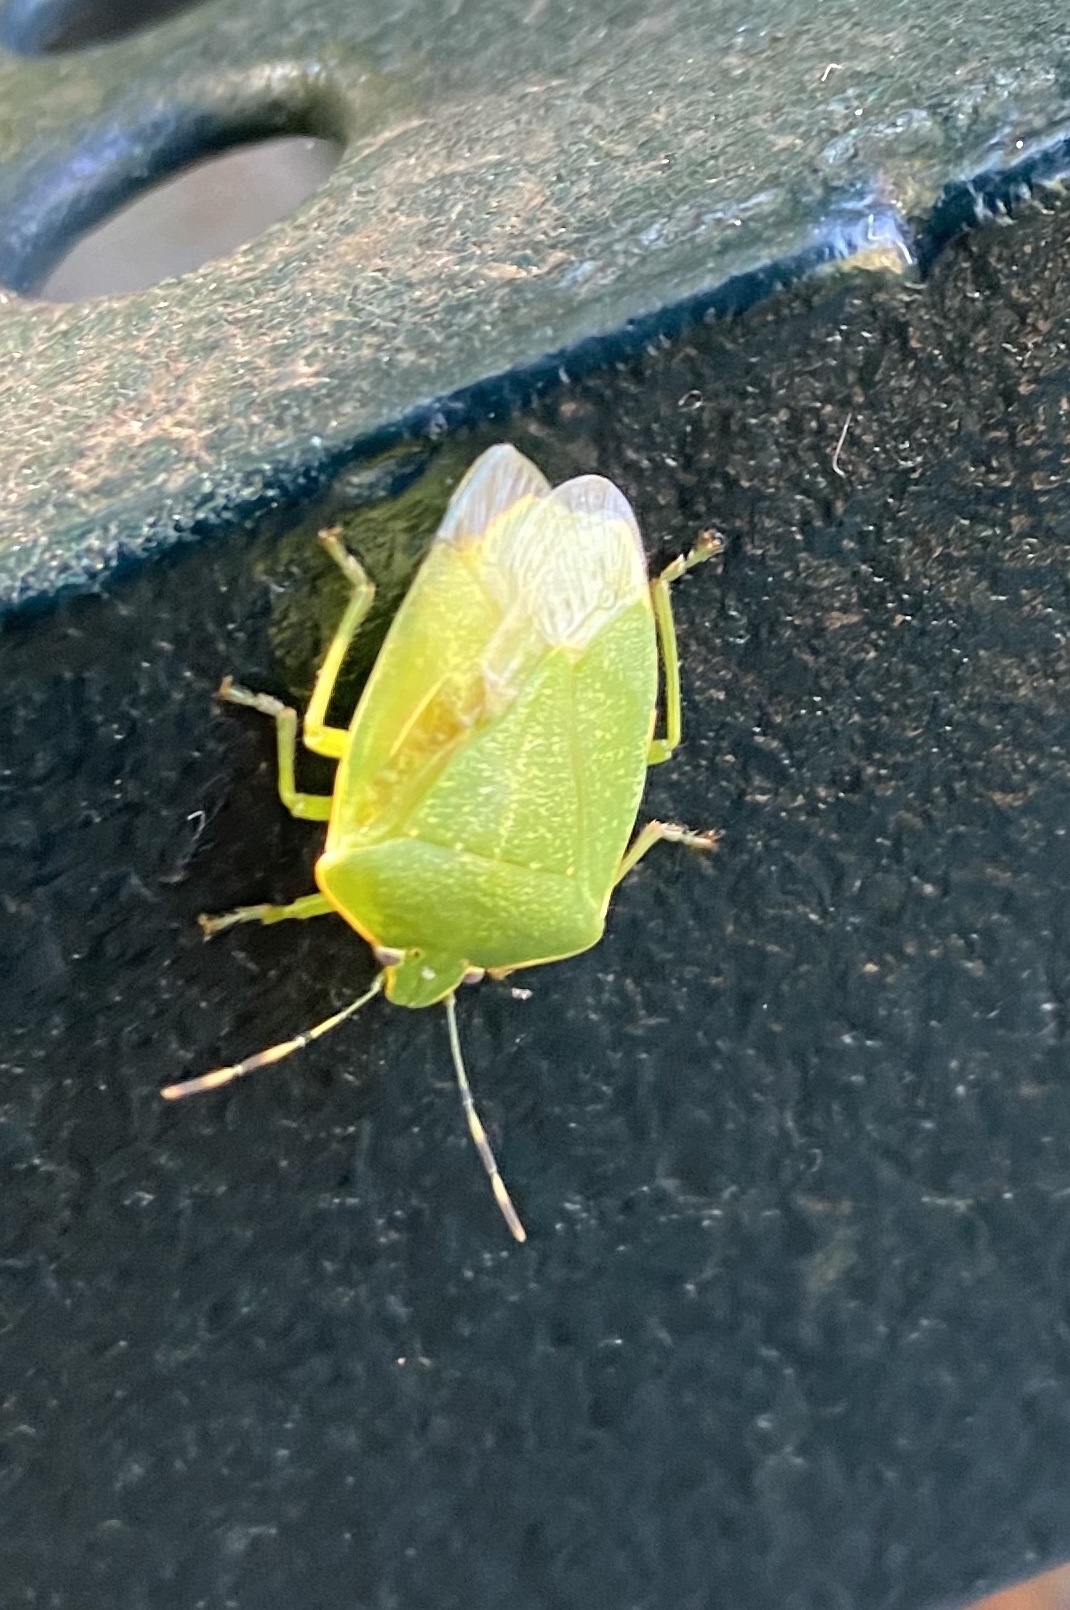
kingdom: Animalia
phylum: Arthropoda
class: Insecta
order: Hemiptera
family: Pentatomidae
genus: Chinavia
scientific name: Chinavia hilaris
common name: Green stink bug
